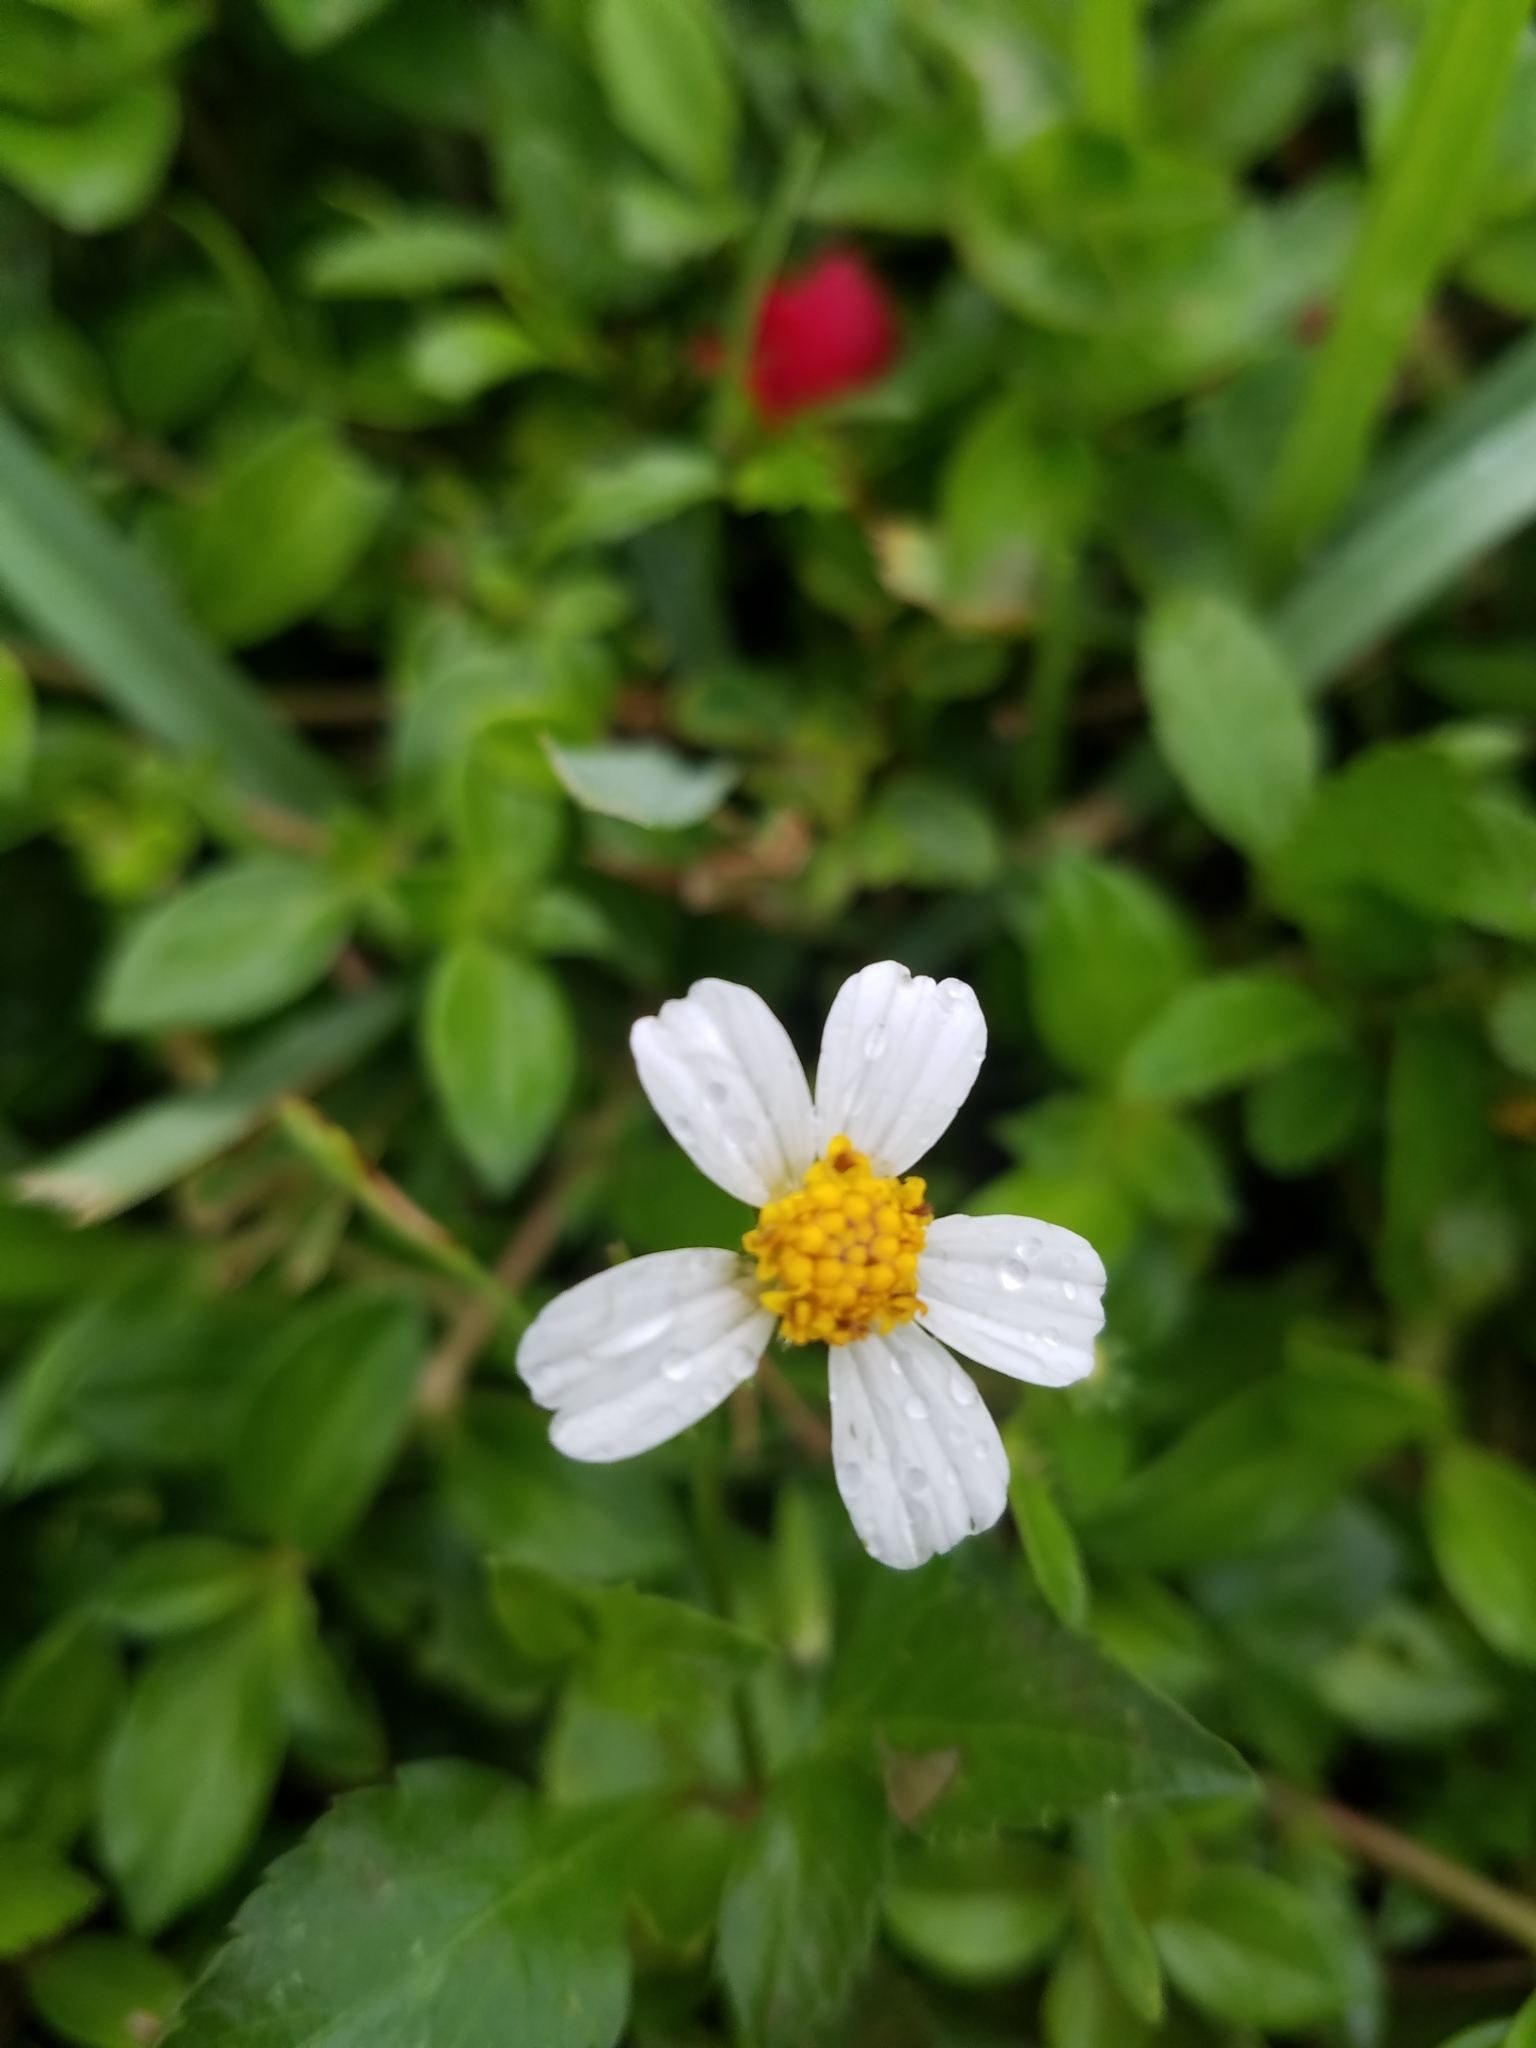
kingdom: Plantae
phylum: Tracheophyta
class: Magnoliopsida
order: Asterales
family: Asteraceae
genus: Bidens
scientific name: Bidens alba
